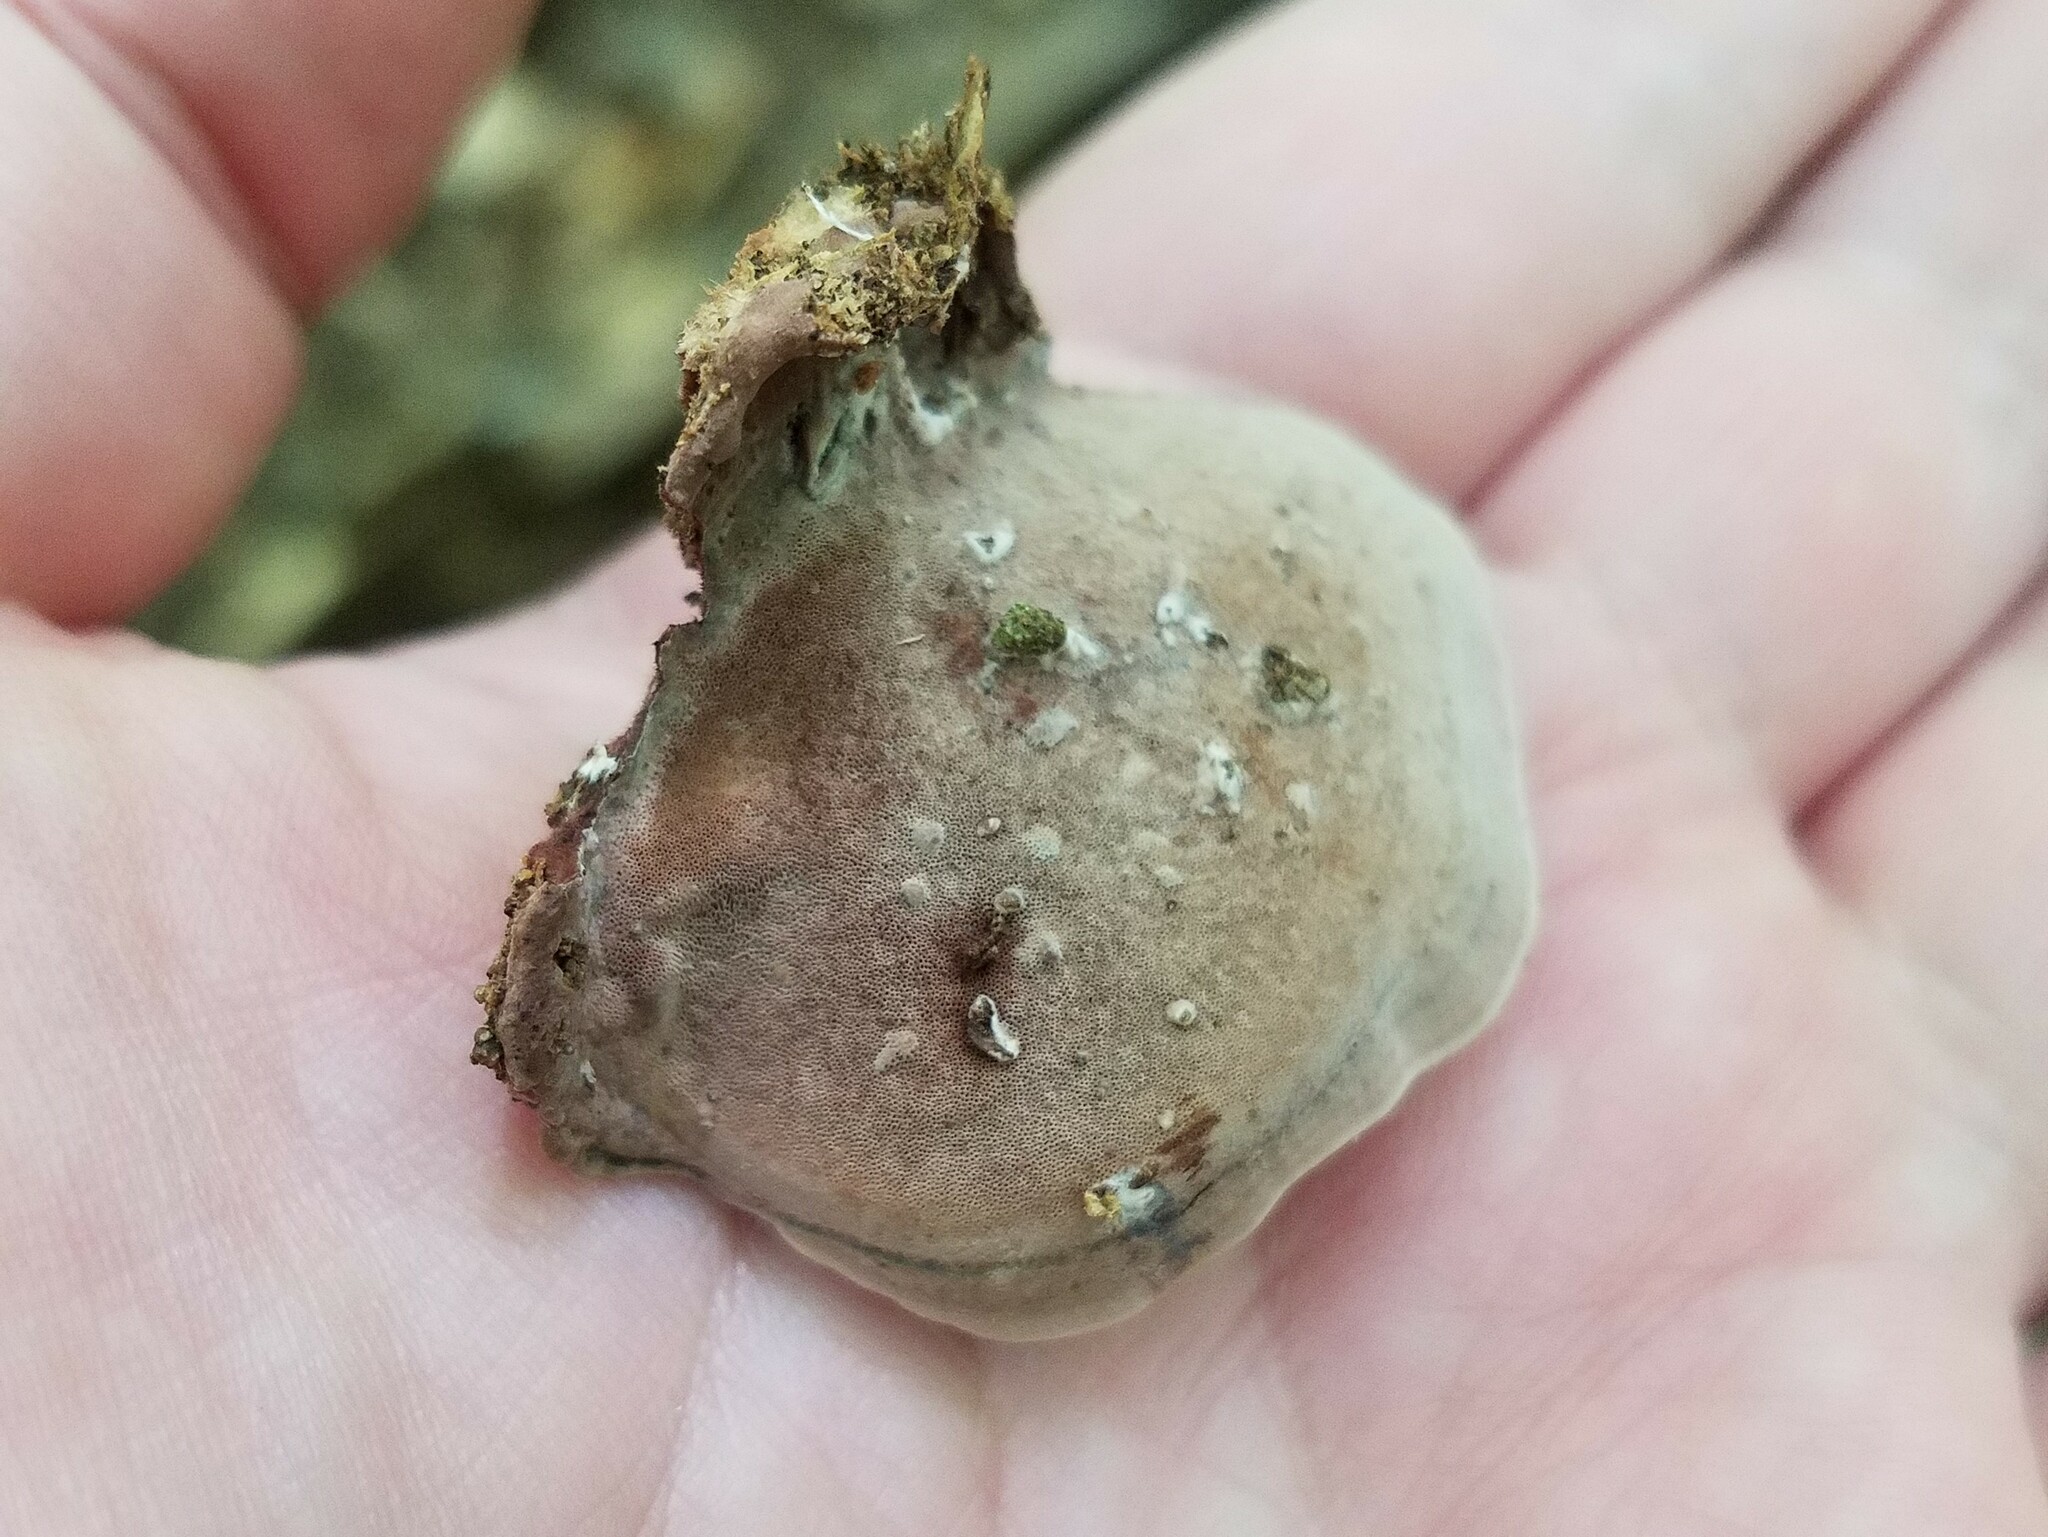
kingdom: Fungi
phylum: Basidiomycota
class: Agaricomycetes
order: Polyporales
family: Steccherinaceae
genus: Nigroporus
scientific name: Nigroporus vinosus
